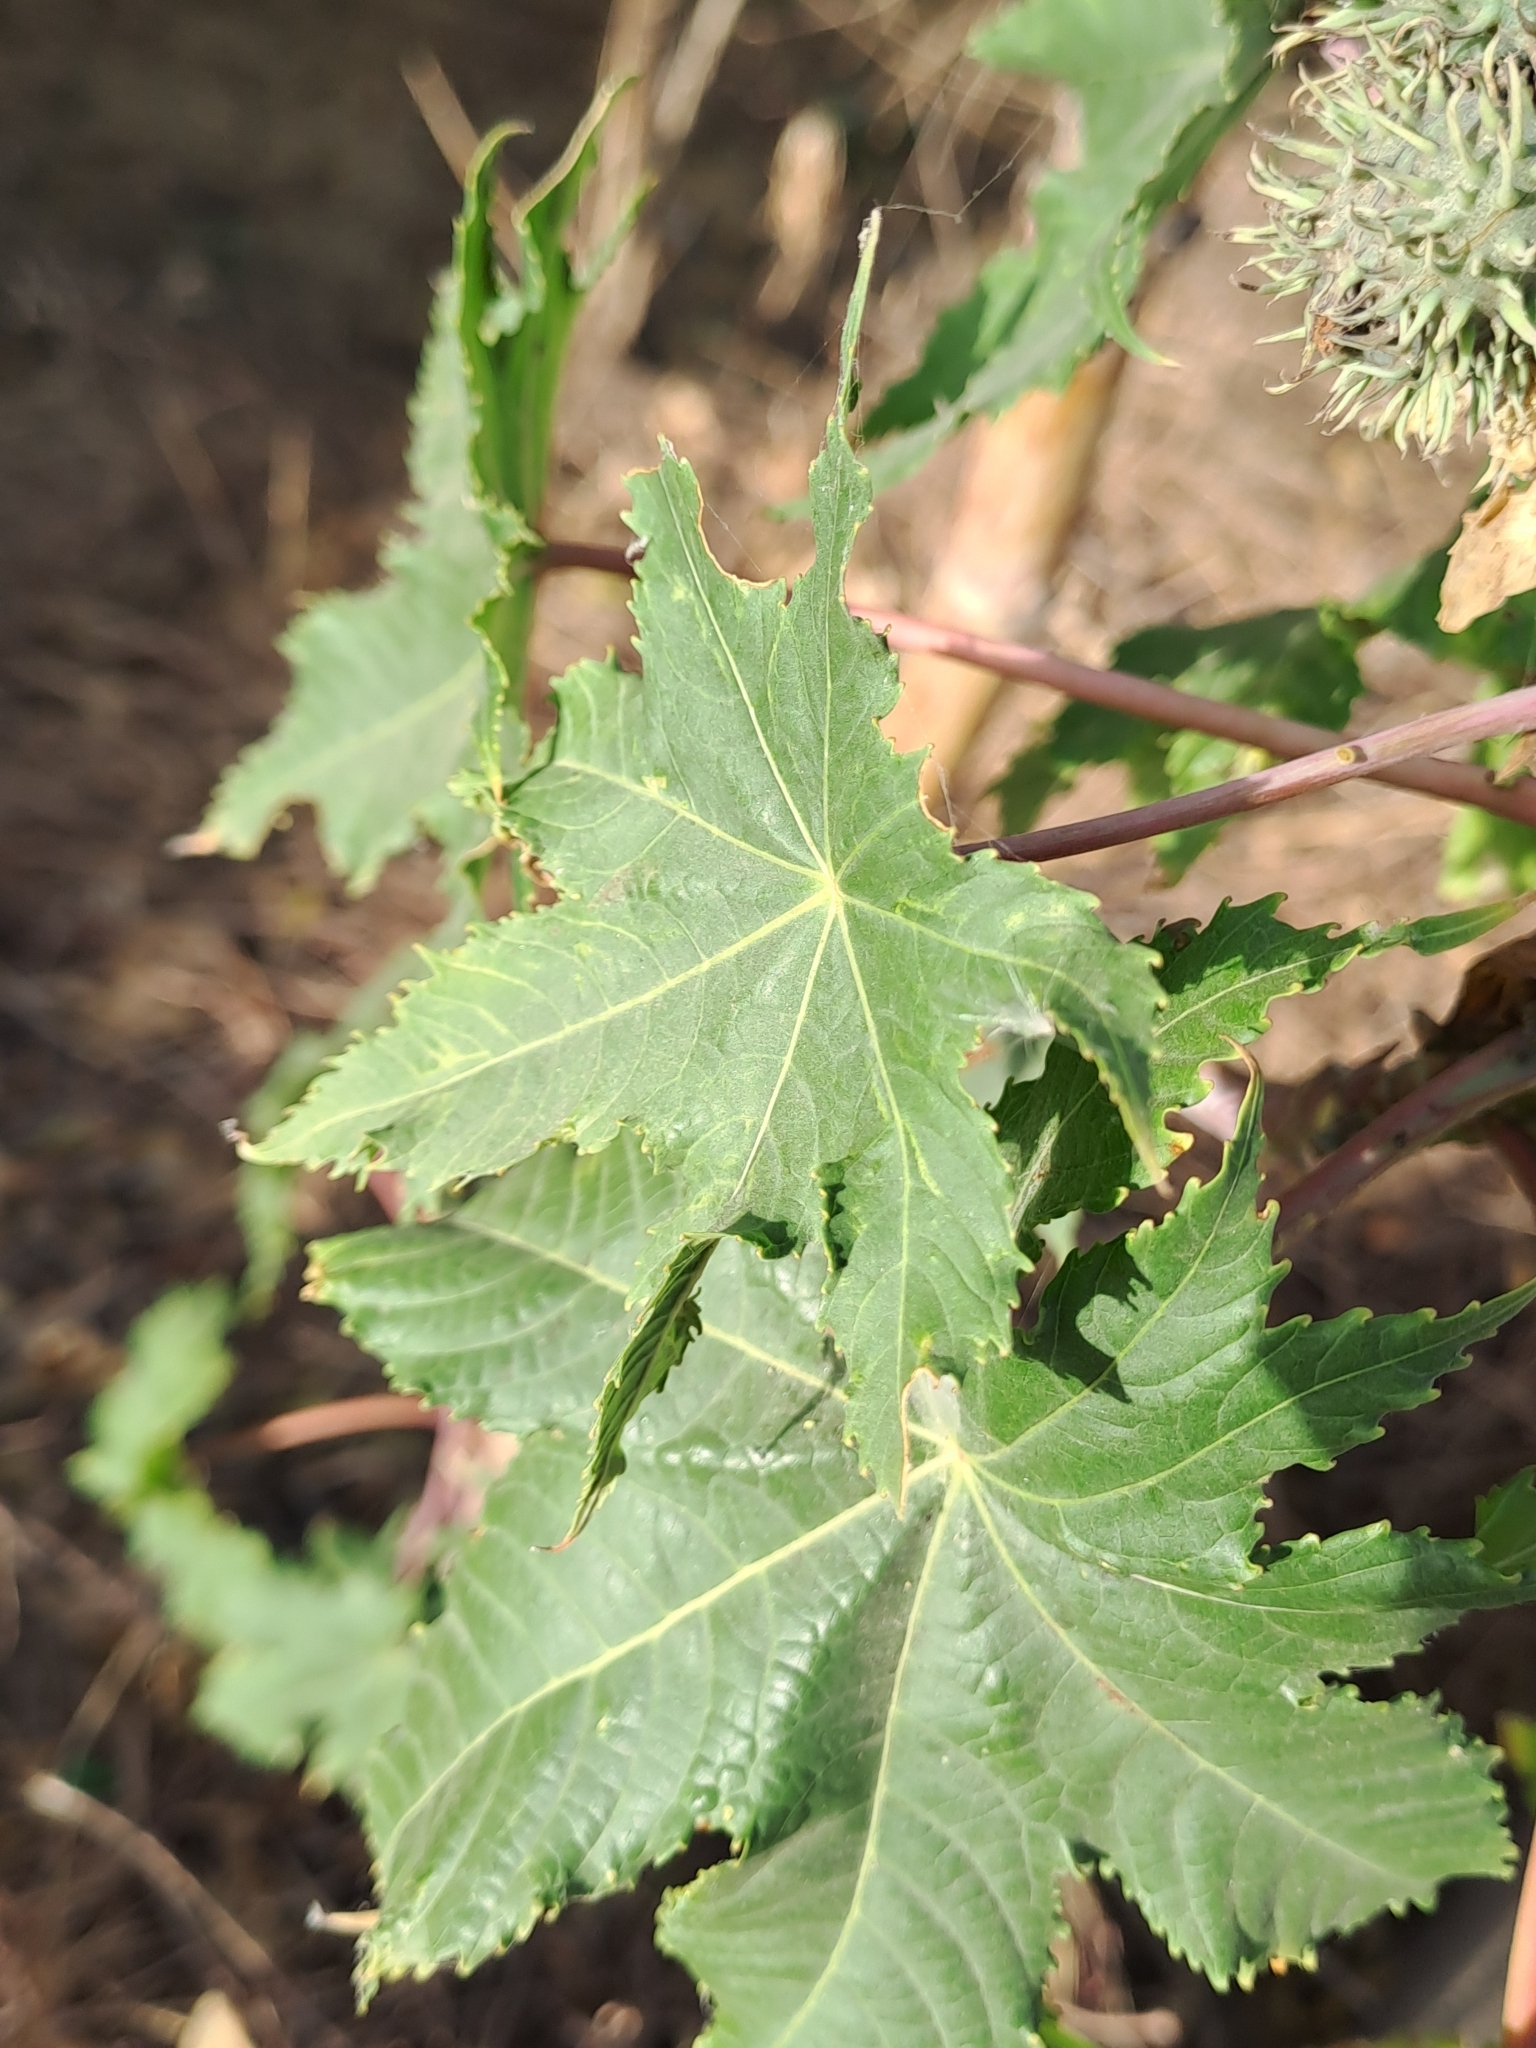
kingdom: Plantae
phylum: Tracheophyta
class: Magnoliopsida
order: Malpighiales
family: Euphorbiaceae
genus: Ricinus
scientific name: Ricinus communis
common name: Castor-oil-plant
